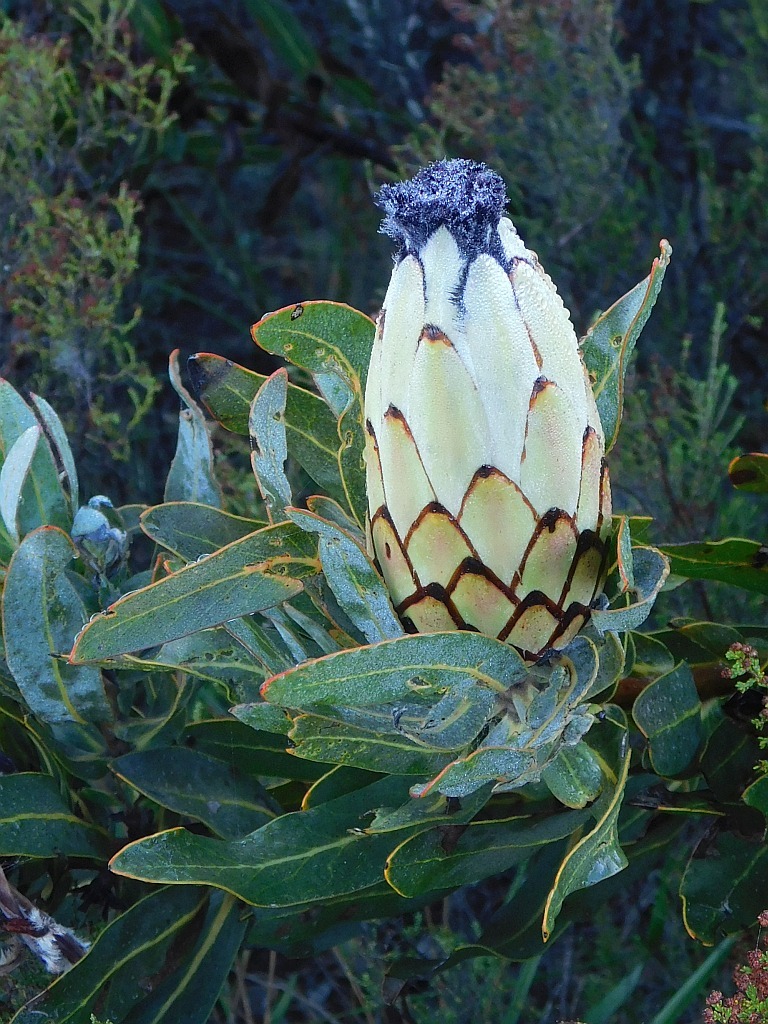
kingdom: Plantae
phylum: Tracheophyta
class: Magnoliopsida
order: Proteales
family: Proteaceae
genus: Protea
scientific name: Protea neriifolia
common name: Blue sugarbush
